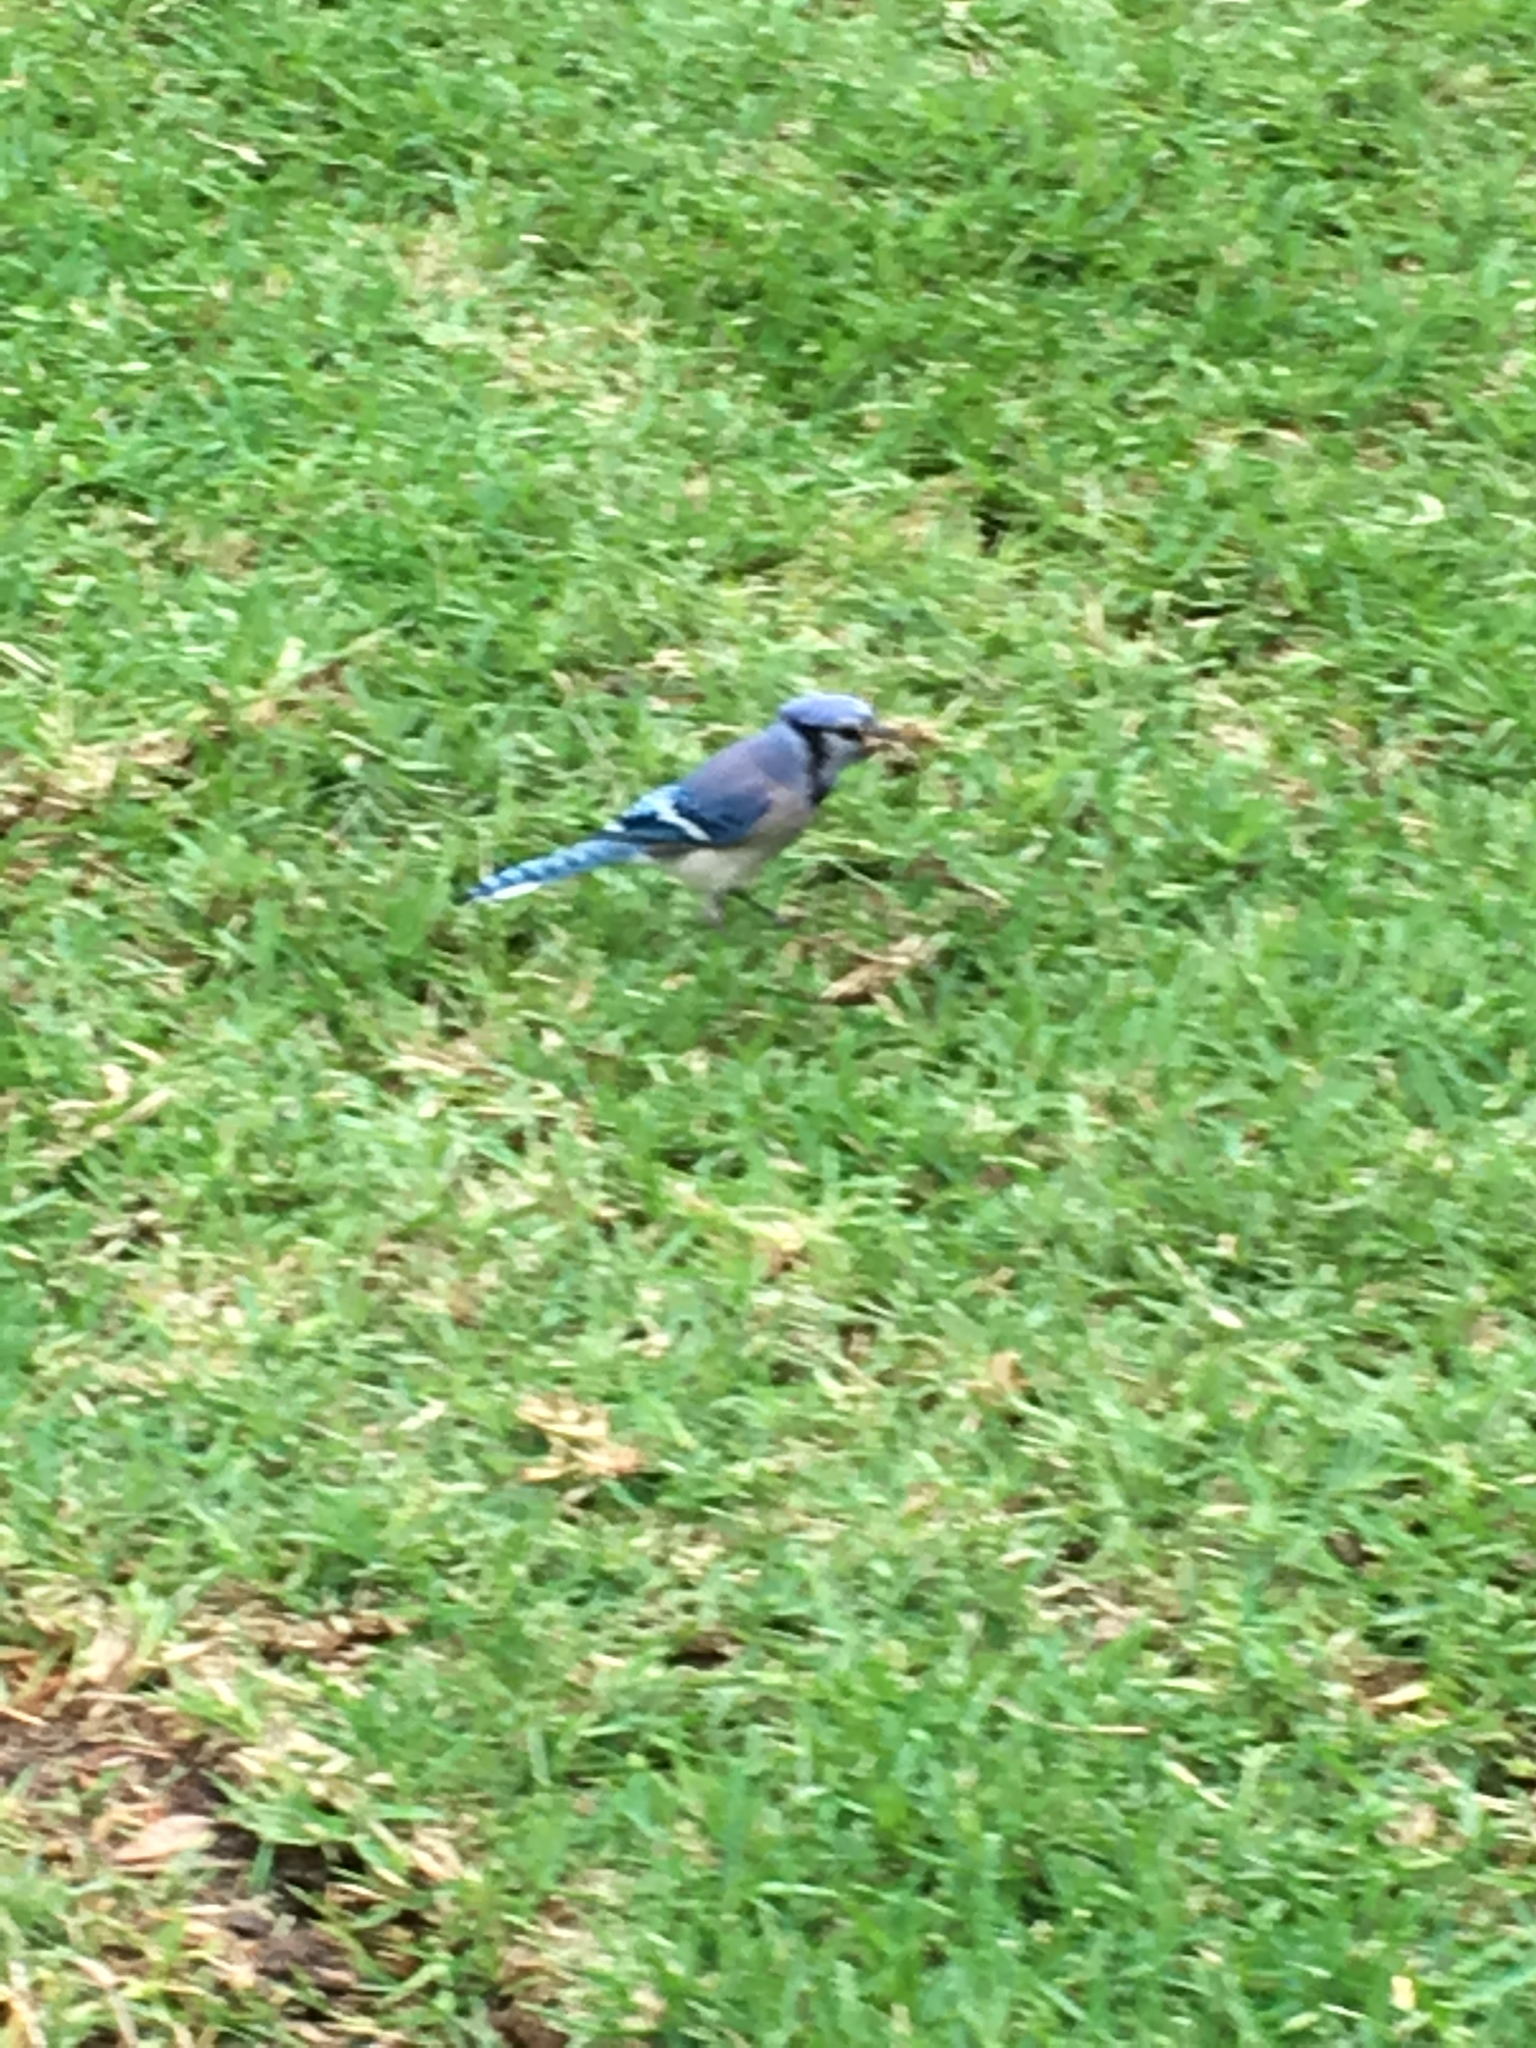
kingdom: Animalia
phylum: Chordata
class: Aves
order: Passeriformes
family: Corvidae
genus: Cyanocitta
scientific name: Cyanocitta cristata
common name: Blue jay
